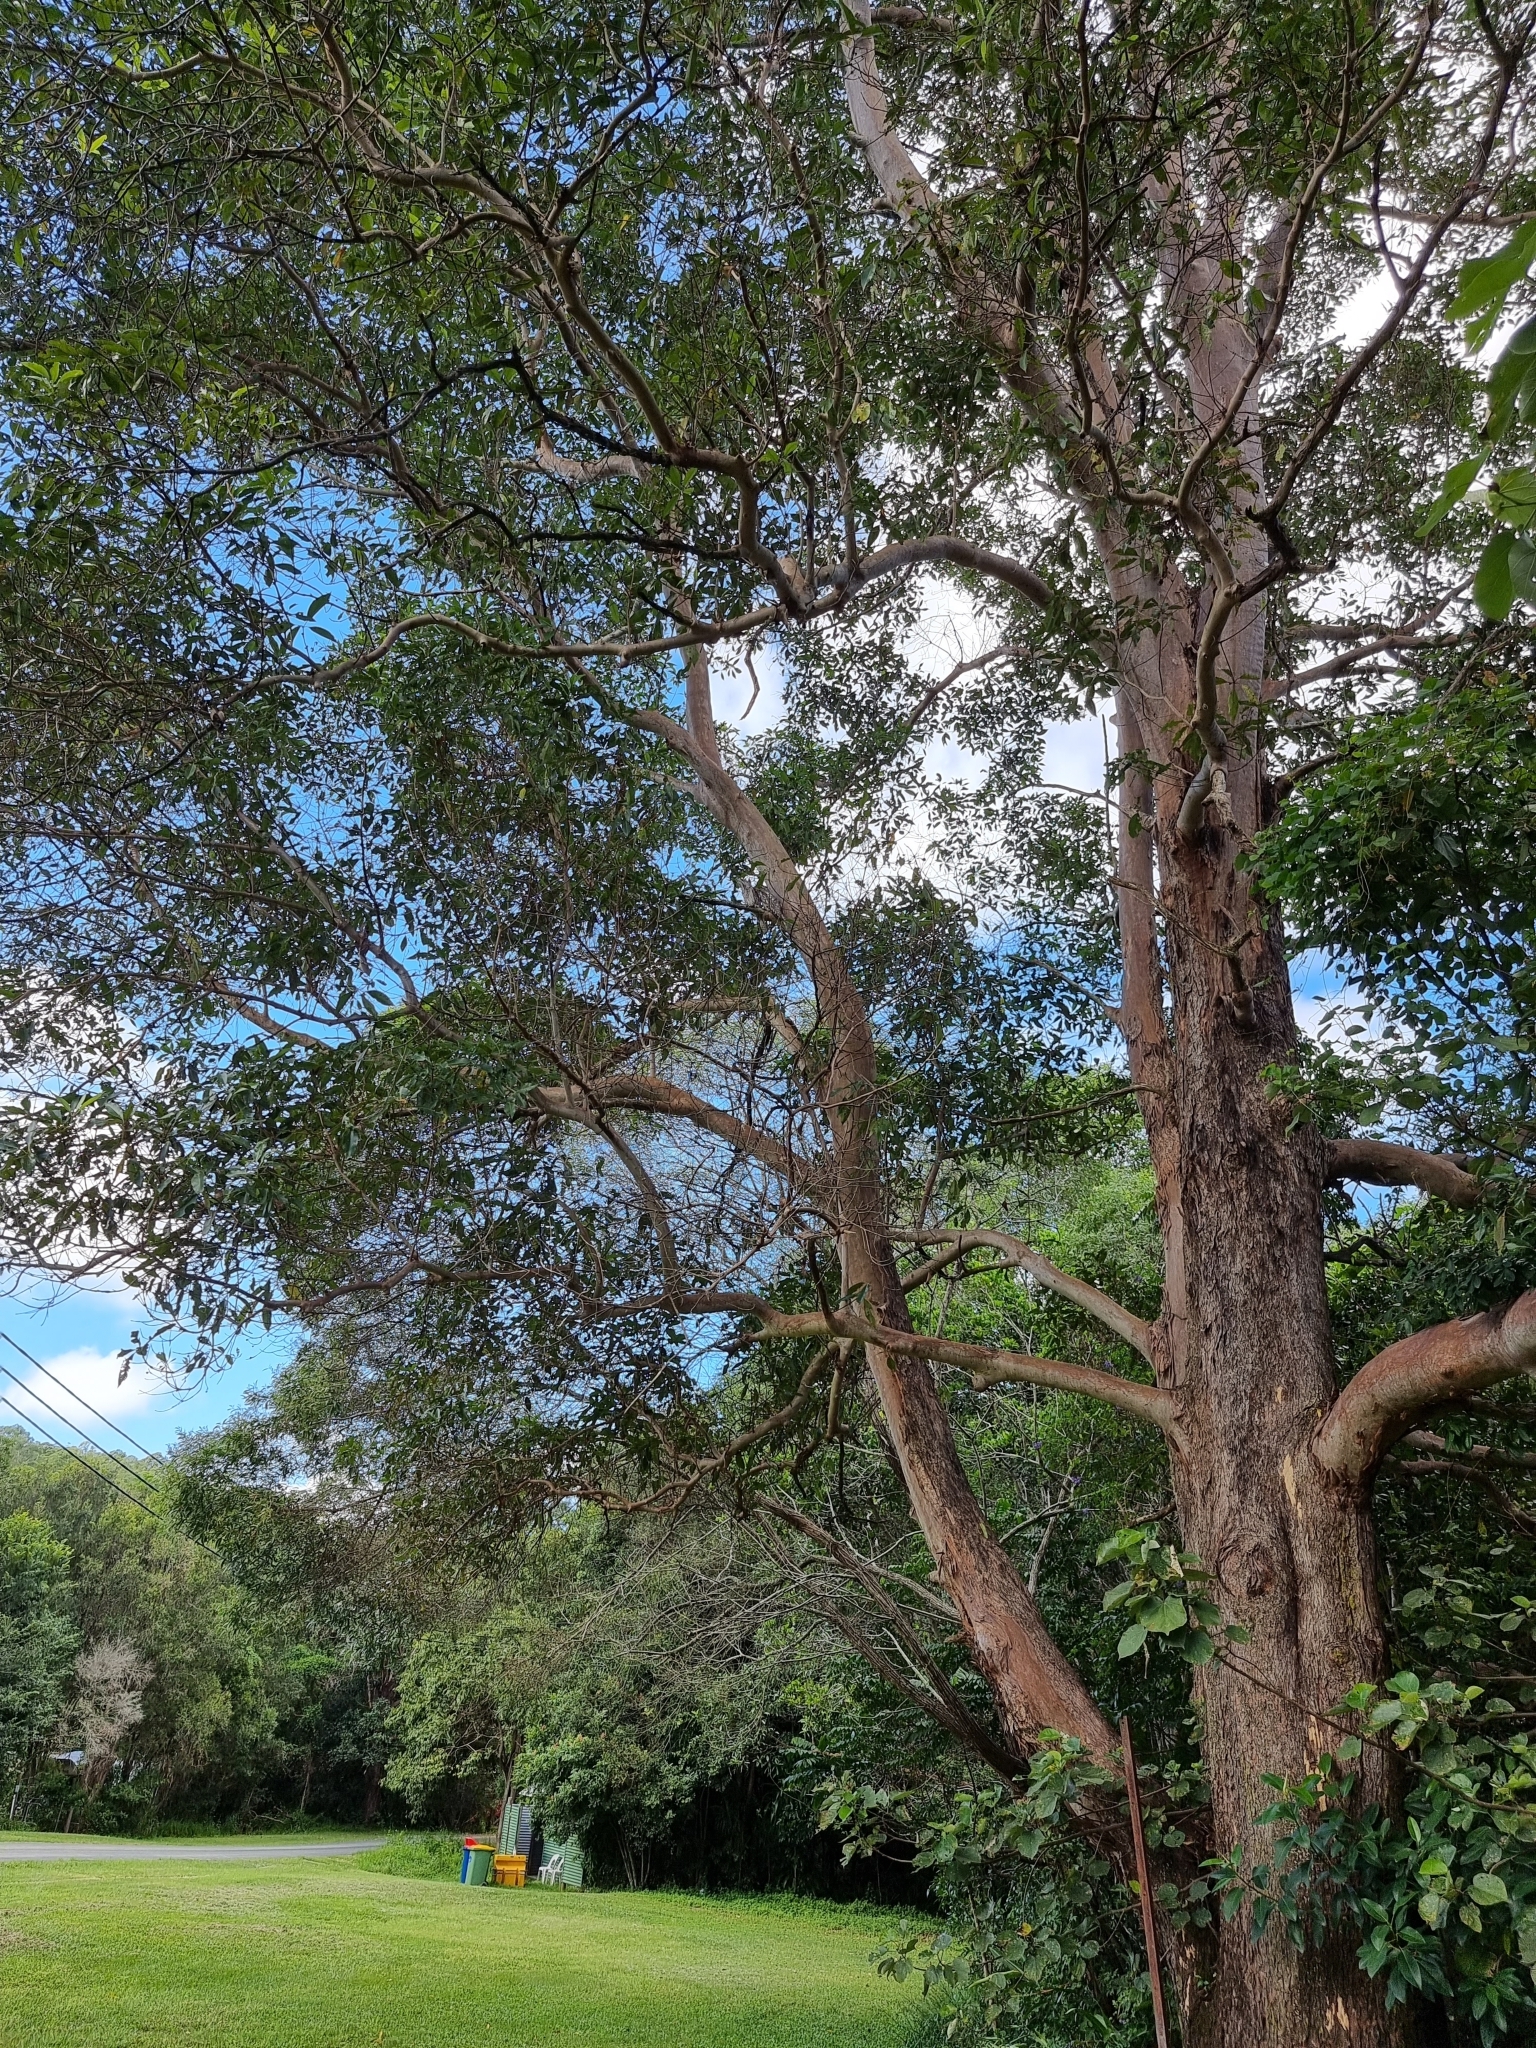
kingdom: Animalia
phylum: Chordata
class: Aves
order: Caprimulgiformes
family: Podargidae
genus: Podargus
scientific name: Podargus strigoides
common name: Tawny frogmouth
